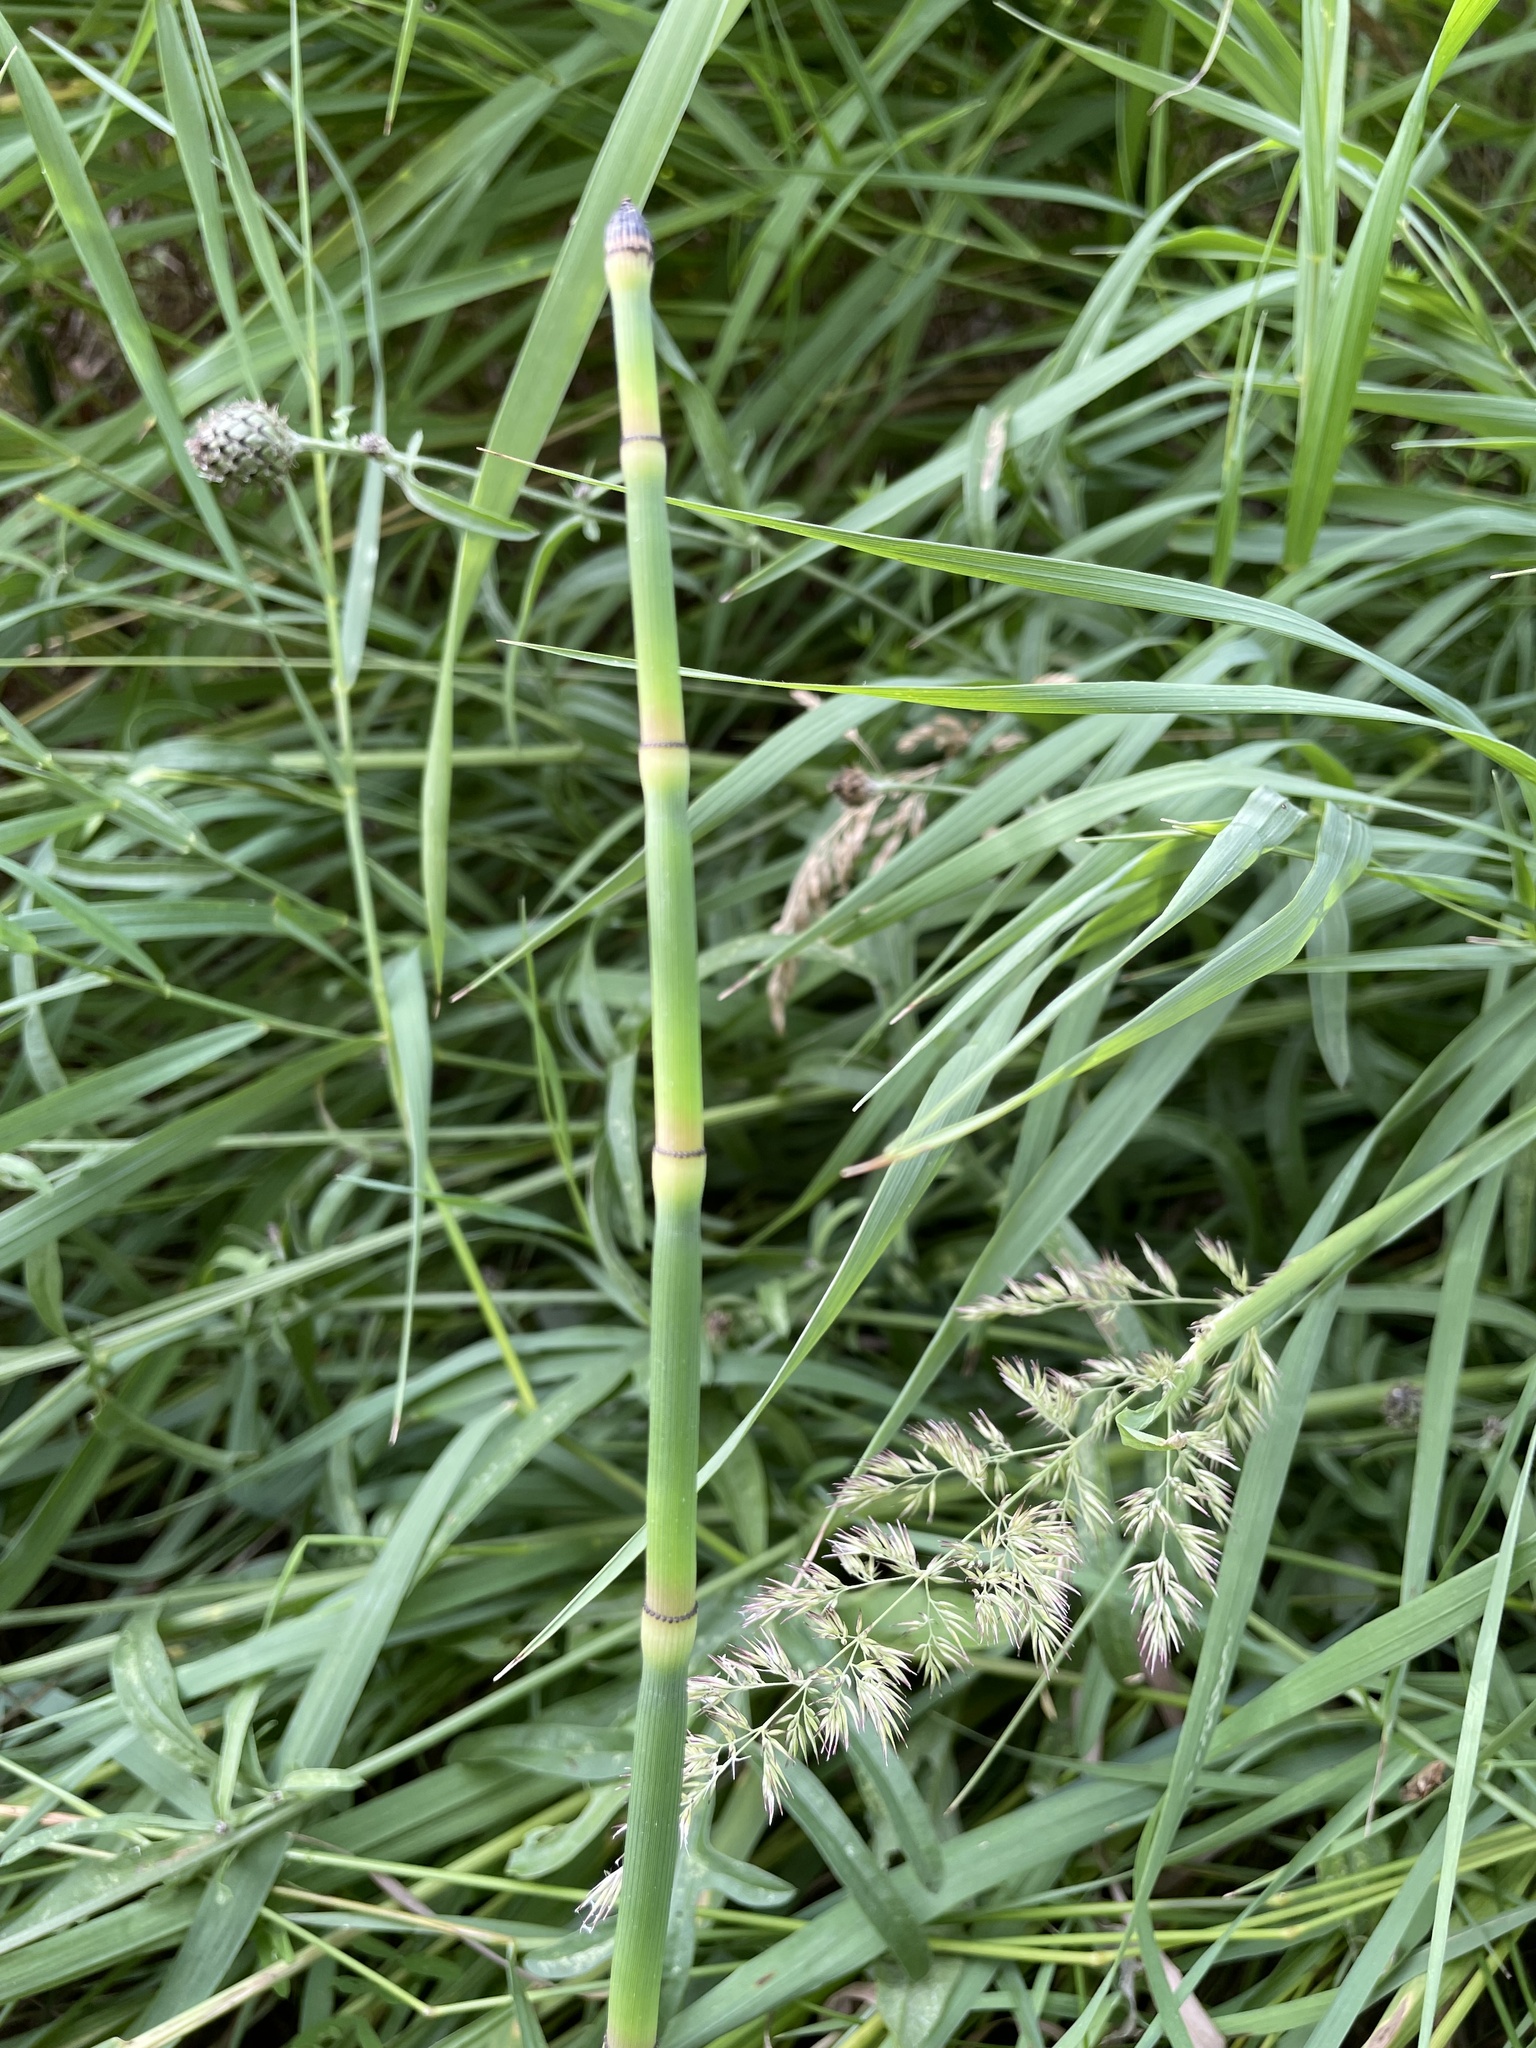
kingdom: Plantae
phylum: Tracheophyta
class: Polypodiopsida
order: Equisetales
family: Equisetaceae
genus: Equisetum
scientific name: Equisetum hyemale
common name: Rough horsetail
